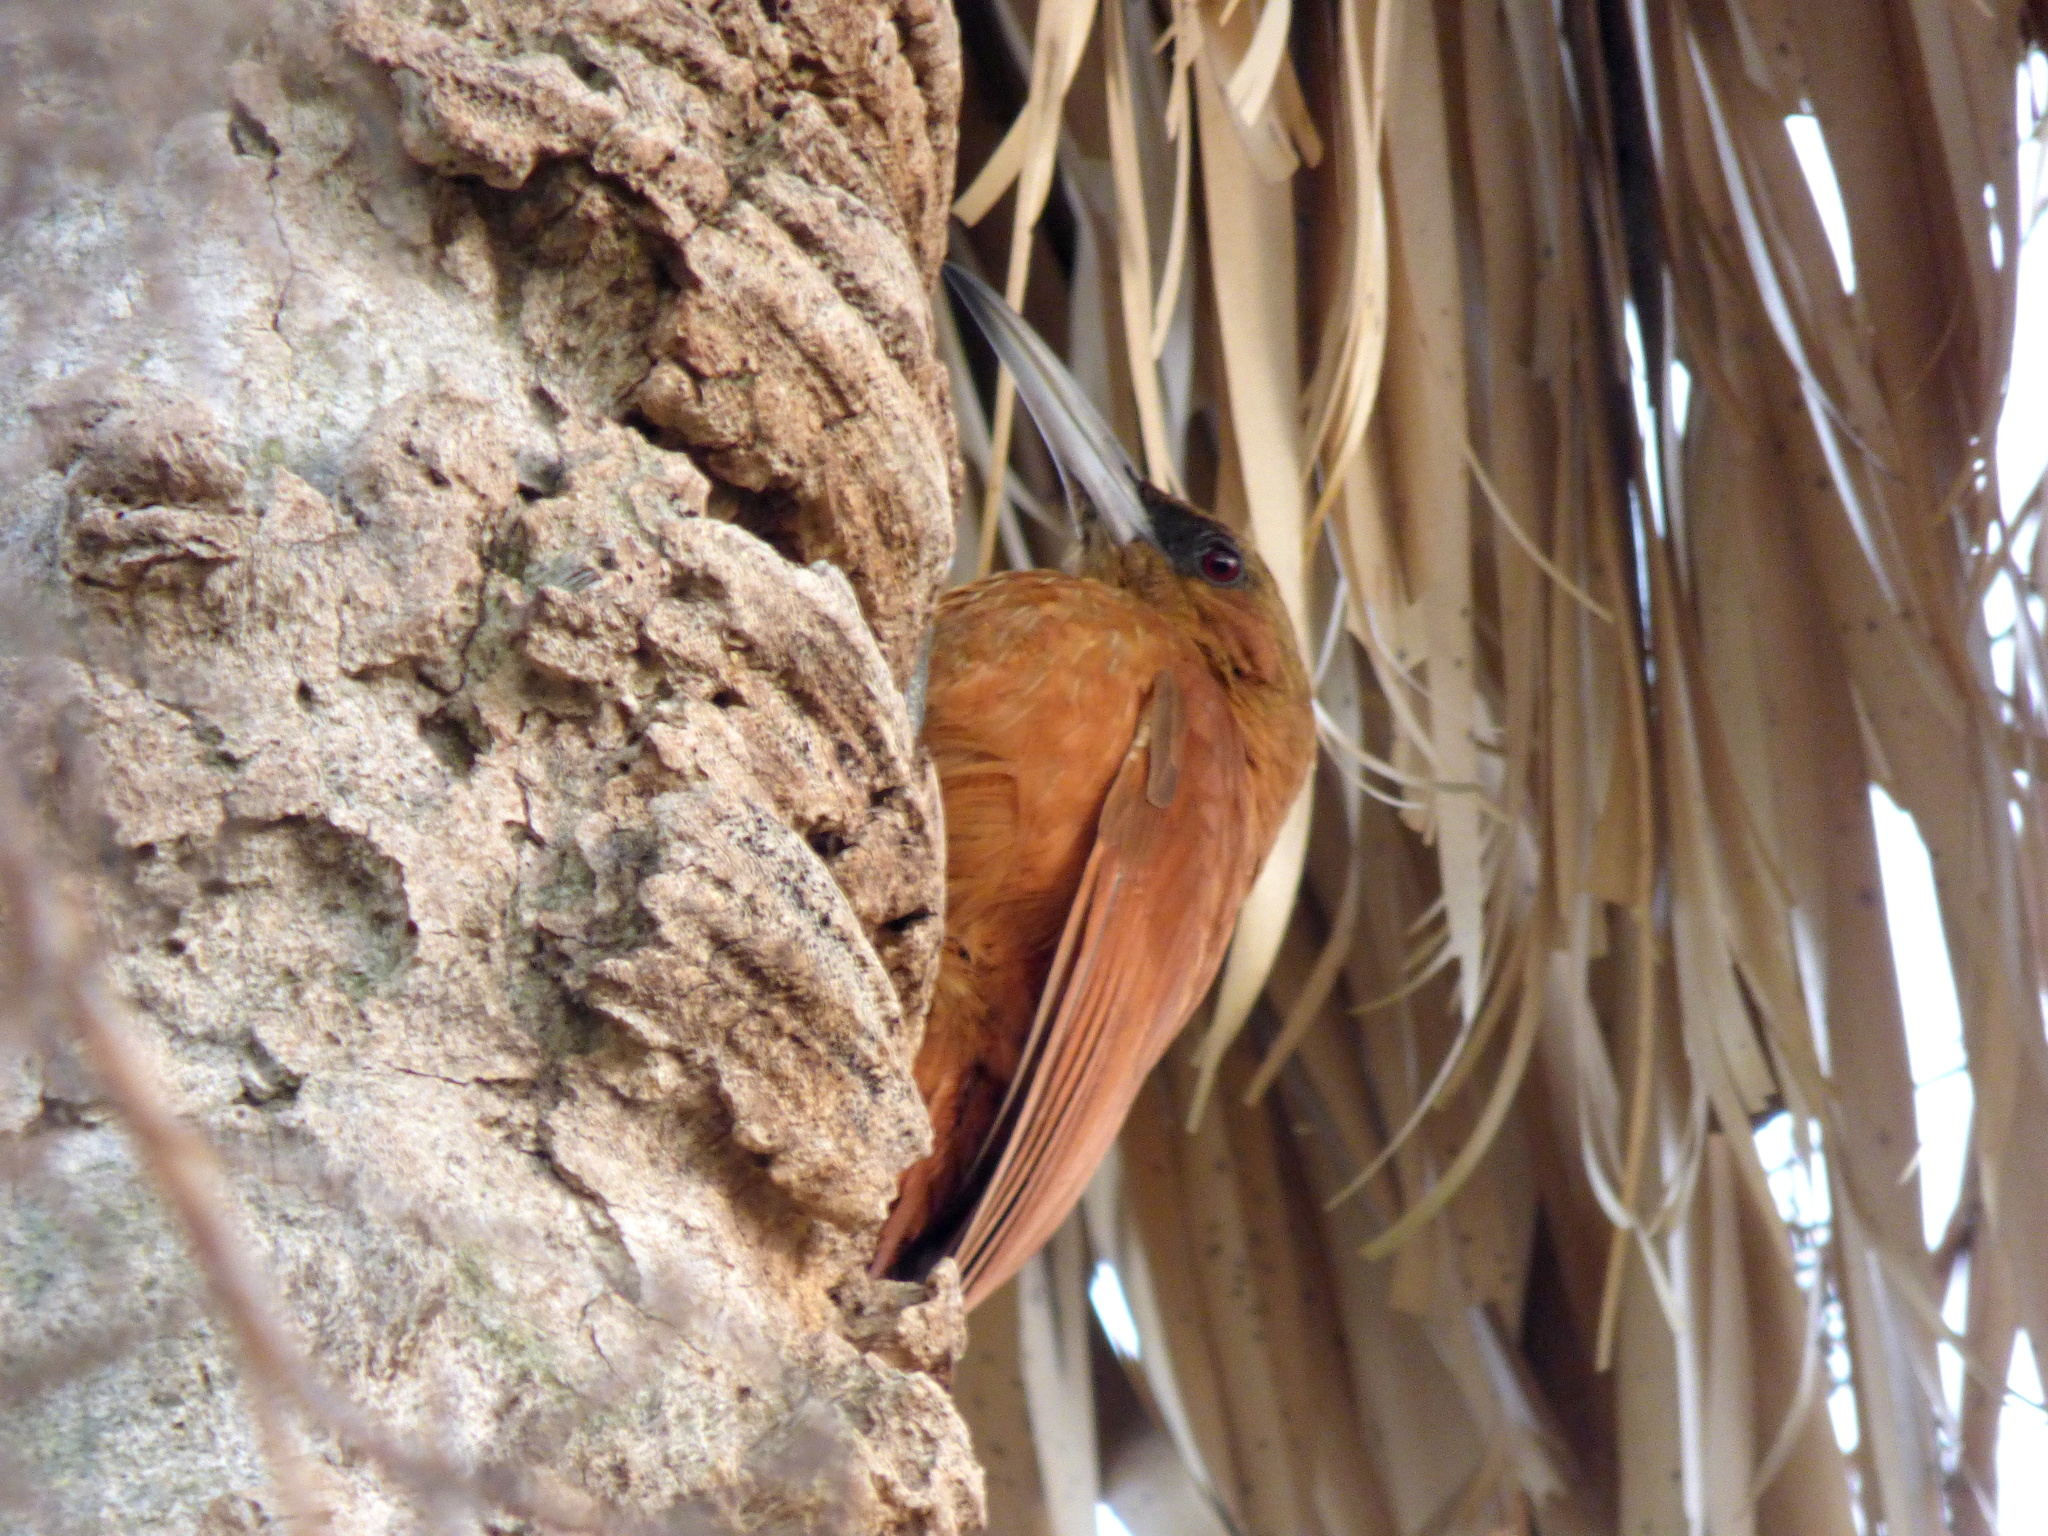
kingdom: Animalia
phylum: Chordata
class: Aves
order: Passeriformes
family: Furnariidae
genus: Xiphocolaptes
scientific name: Xiphocolaptes major
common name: Great rufous woodcreeper
